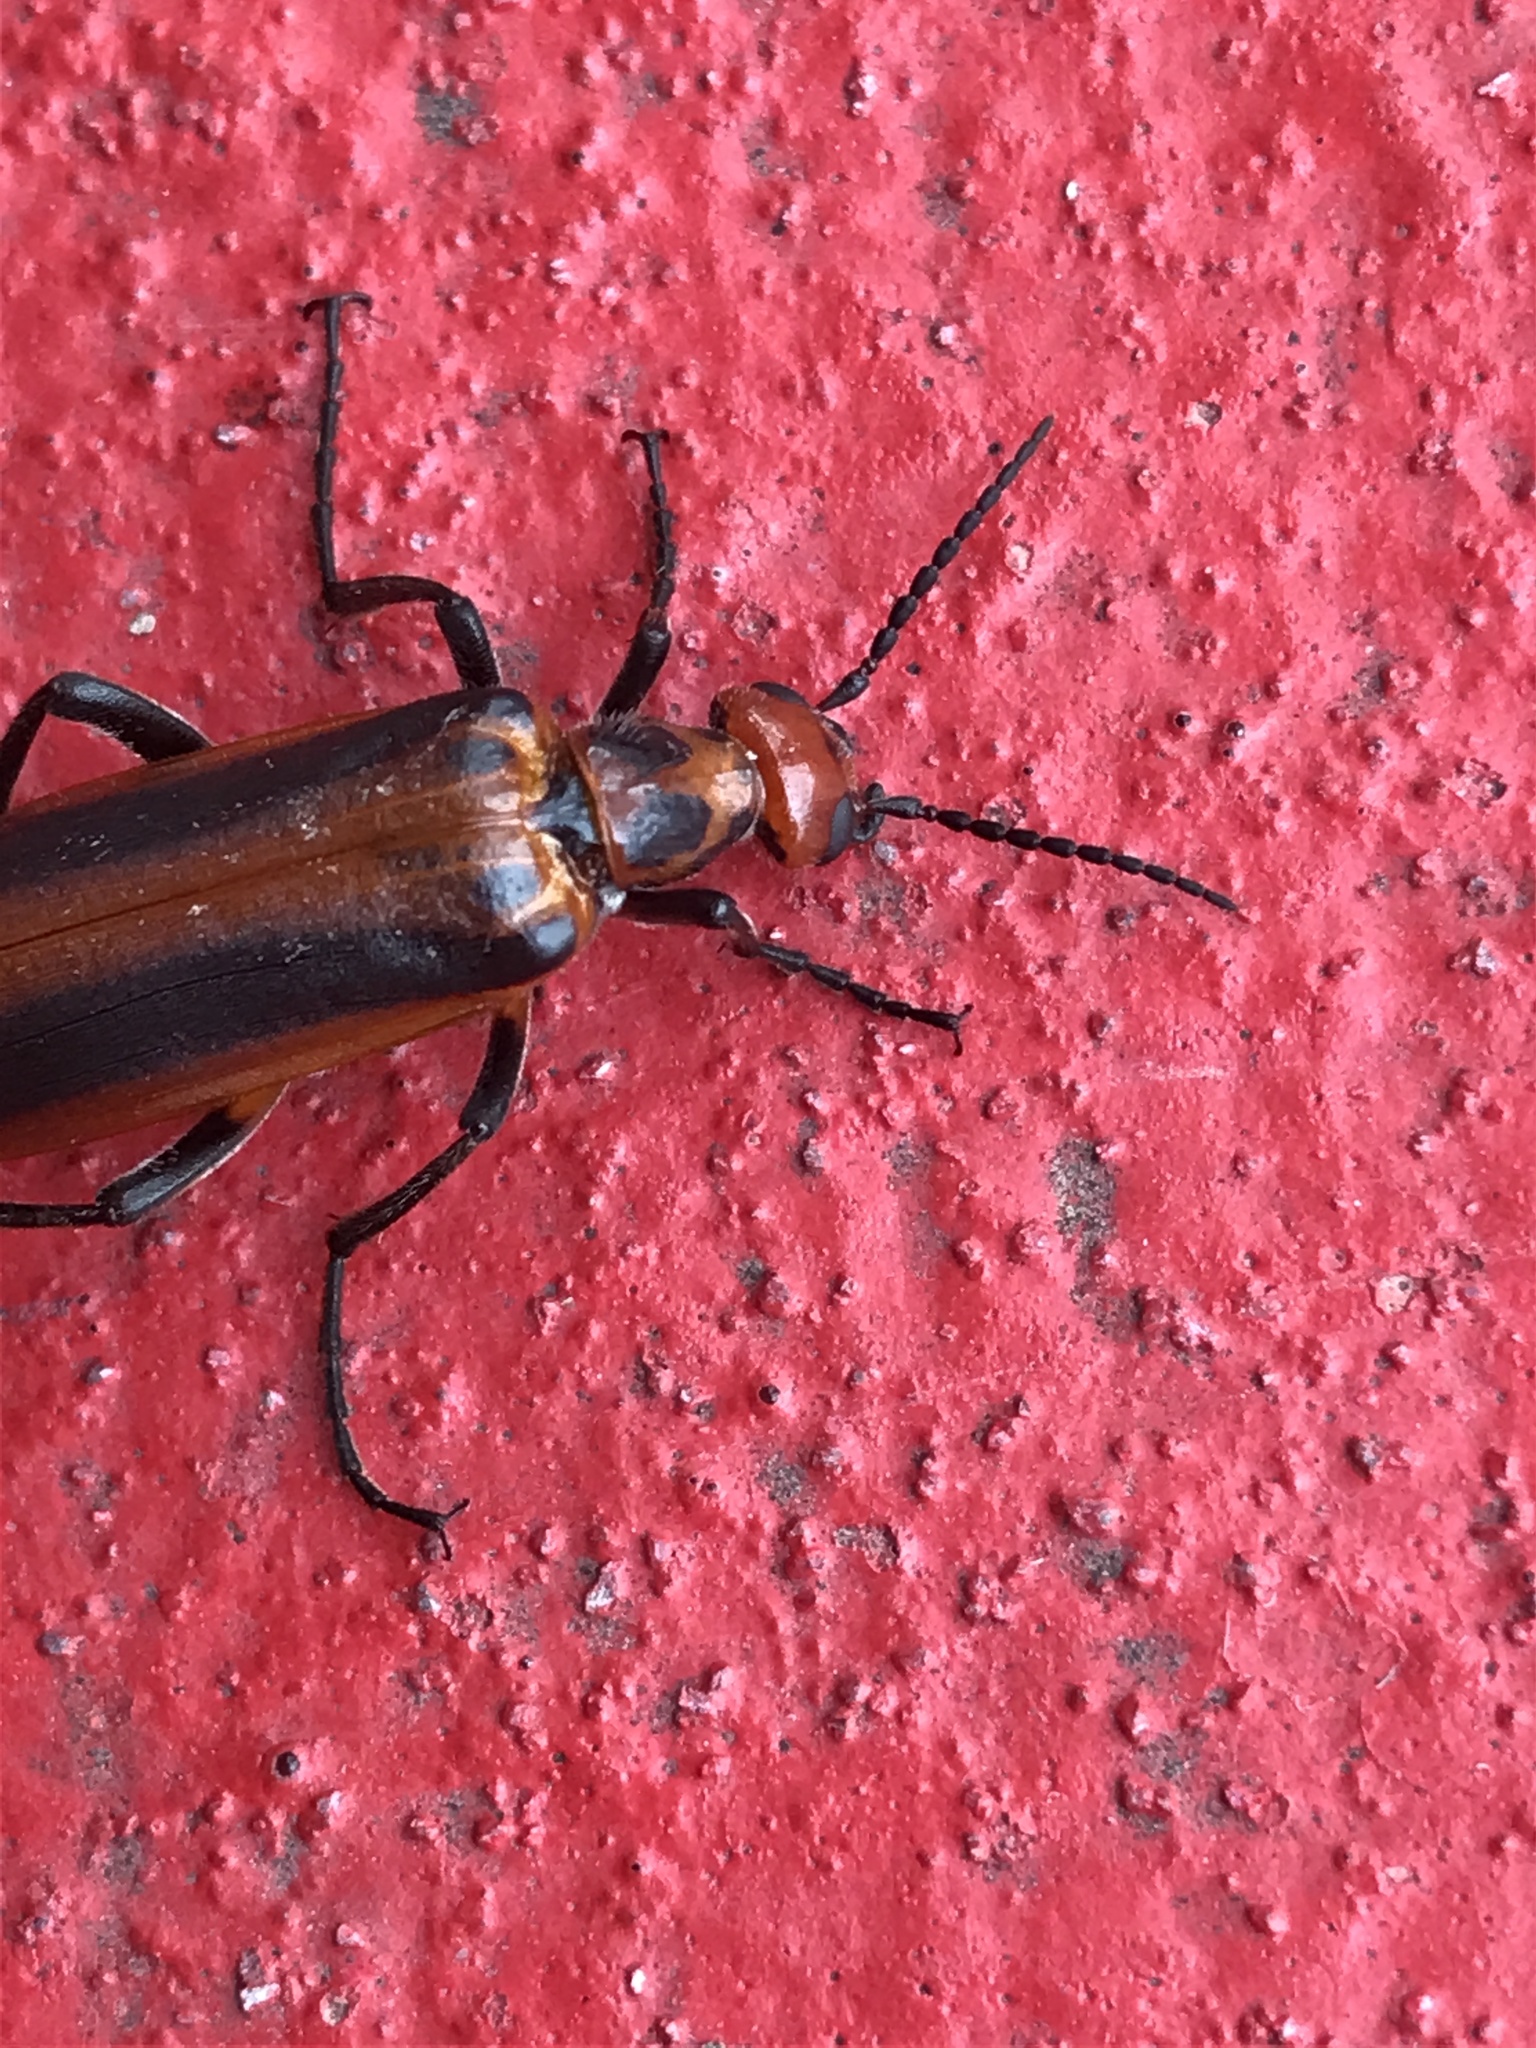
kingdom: Animalia
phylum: Arthropoda
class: Insecta
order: Coleoptera
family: Meloidae
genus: Pyrota
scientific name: Pyrota tenuicostatis
